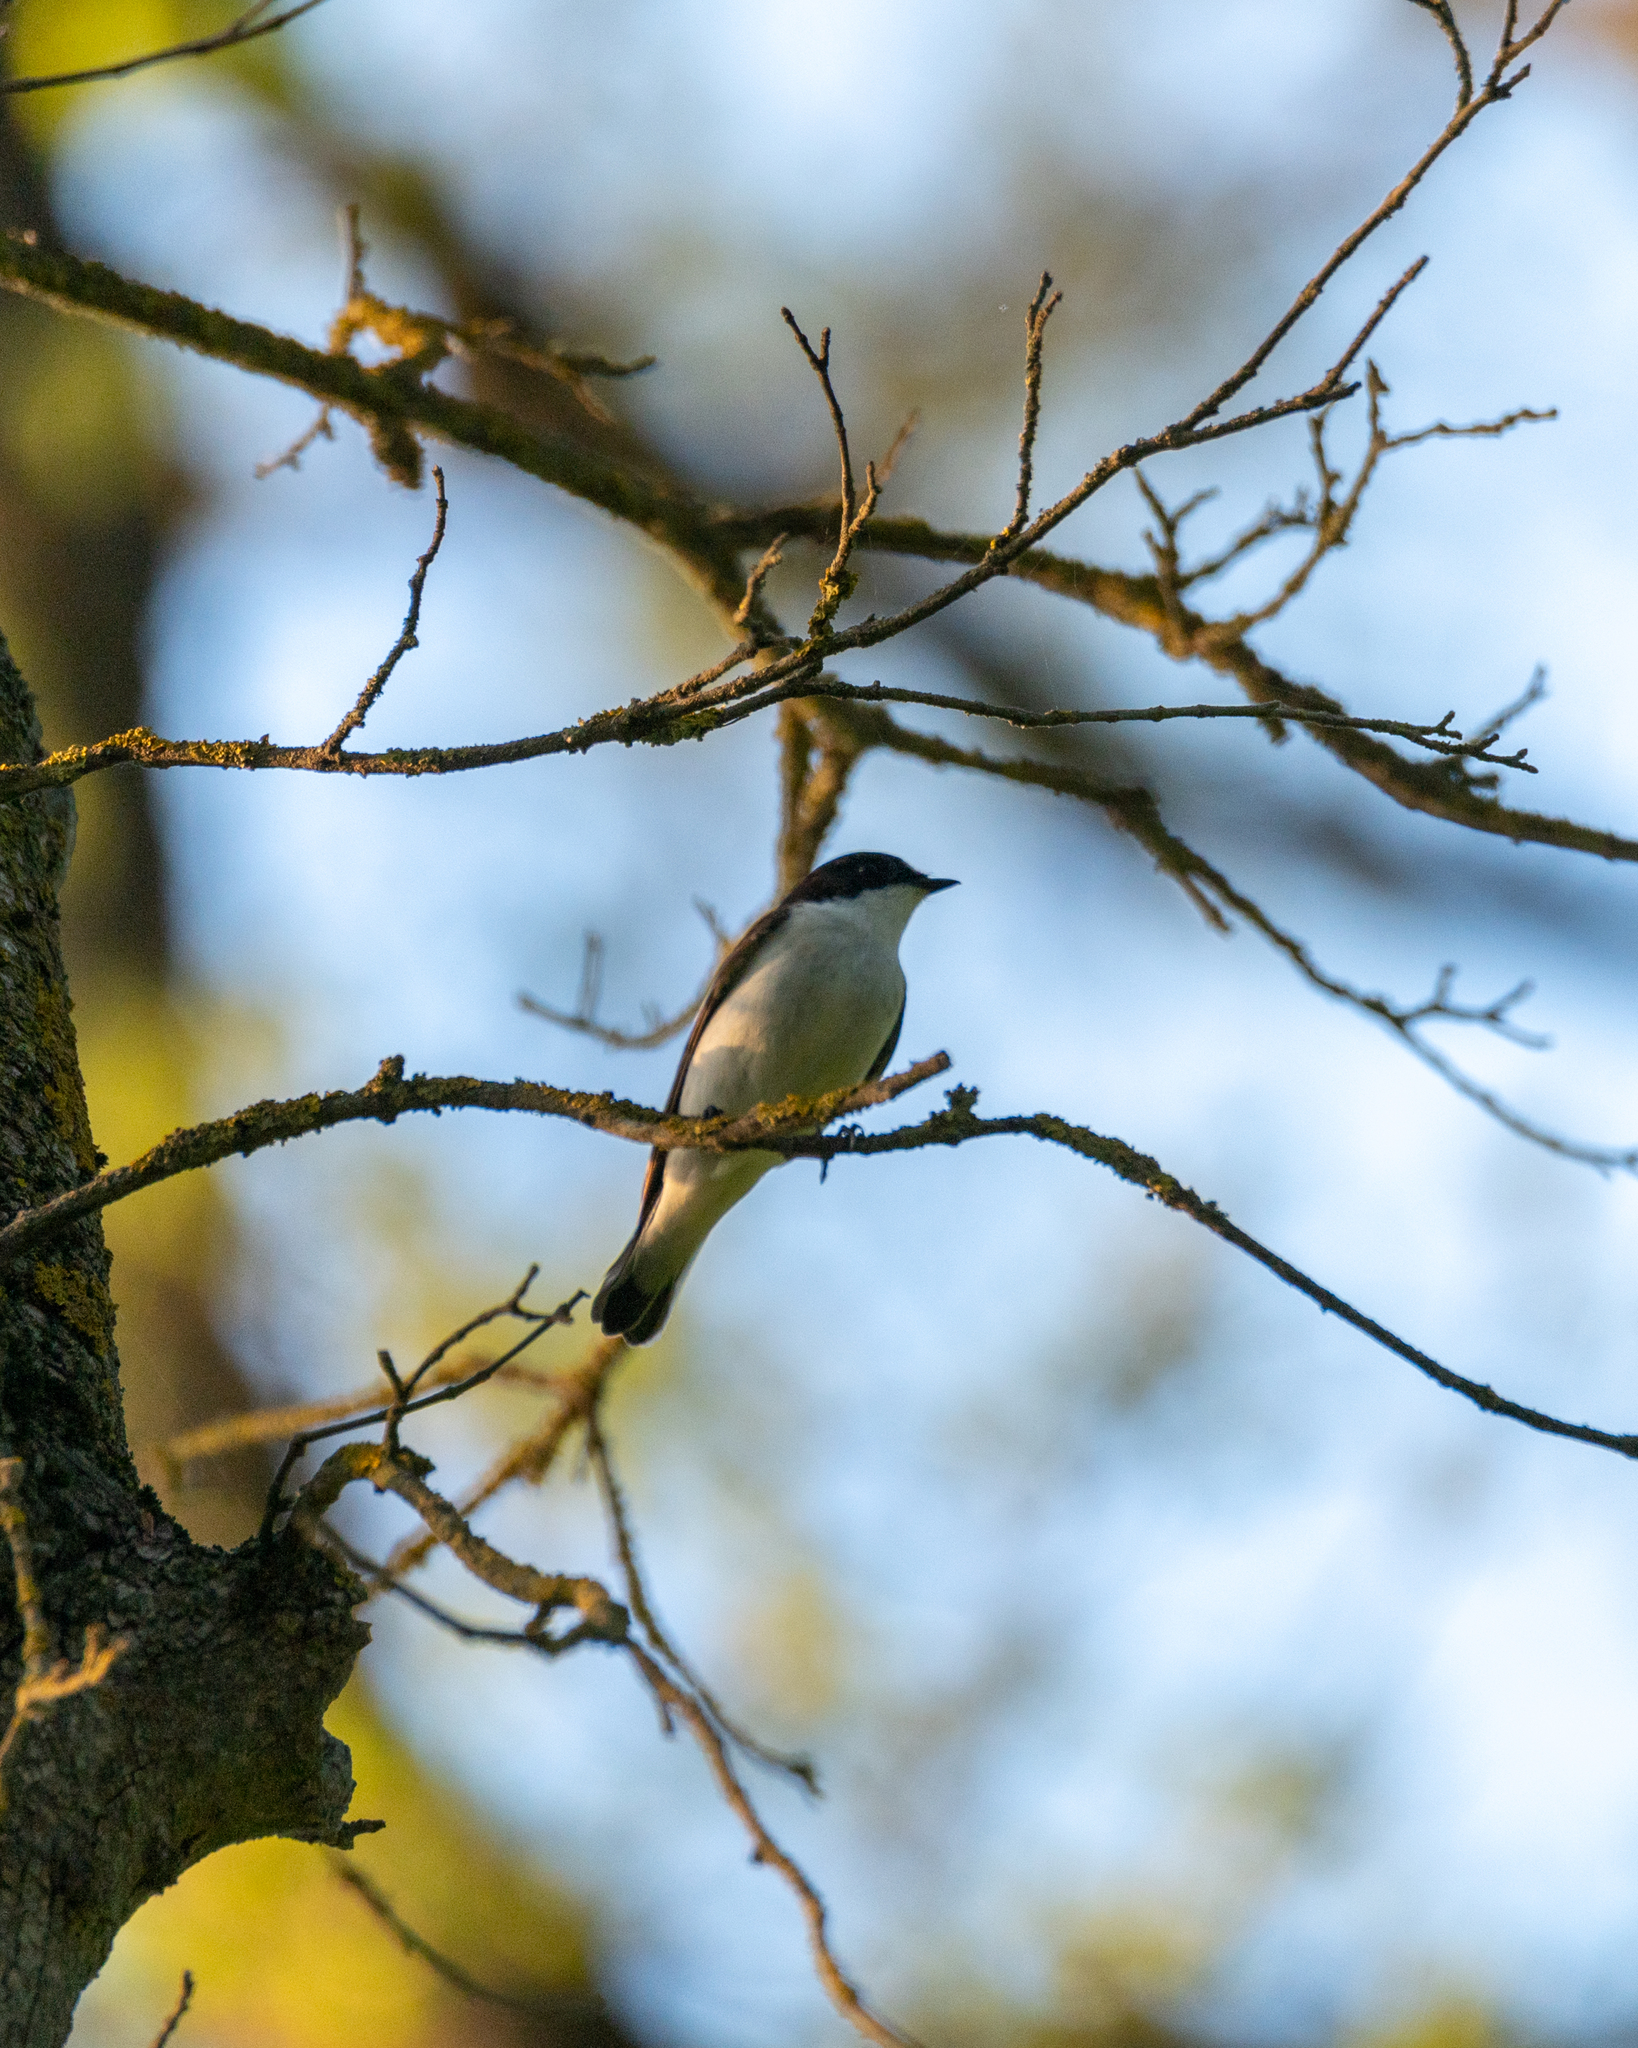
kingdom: Animalia
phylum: Chordata
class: Aves
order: Passeriformes
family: Muscicapidae
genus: Ficedula
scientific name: Ficedula hypoleuca
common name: European pied flycatcher
